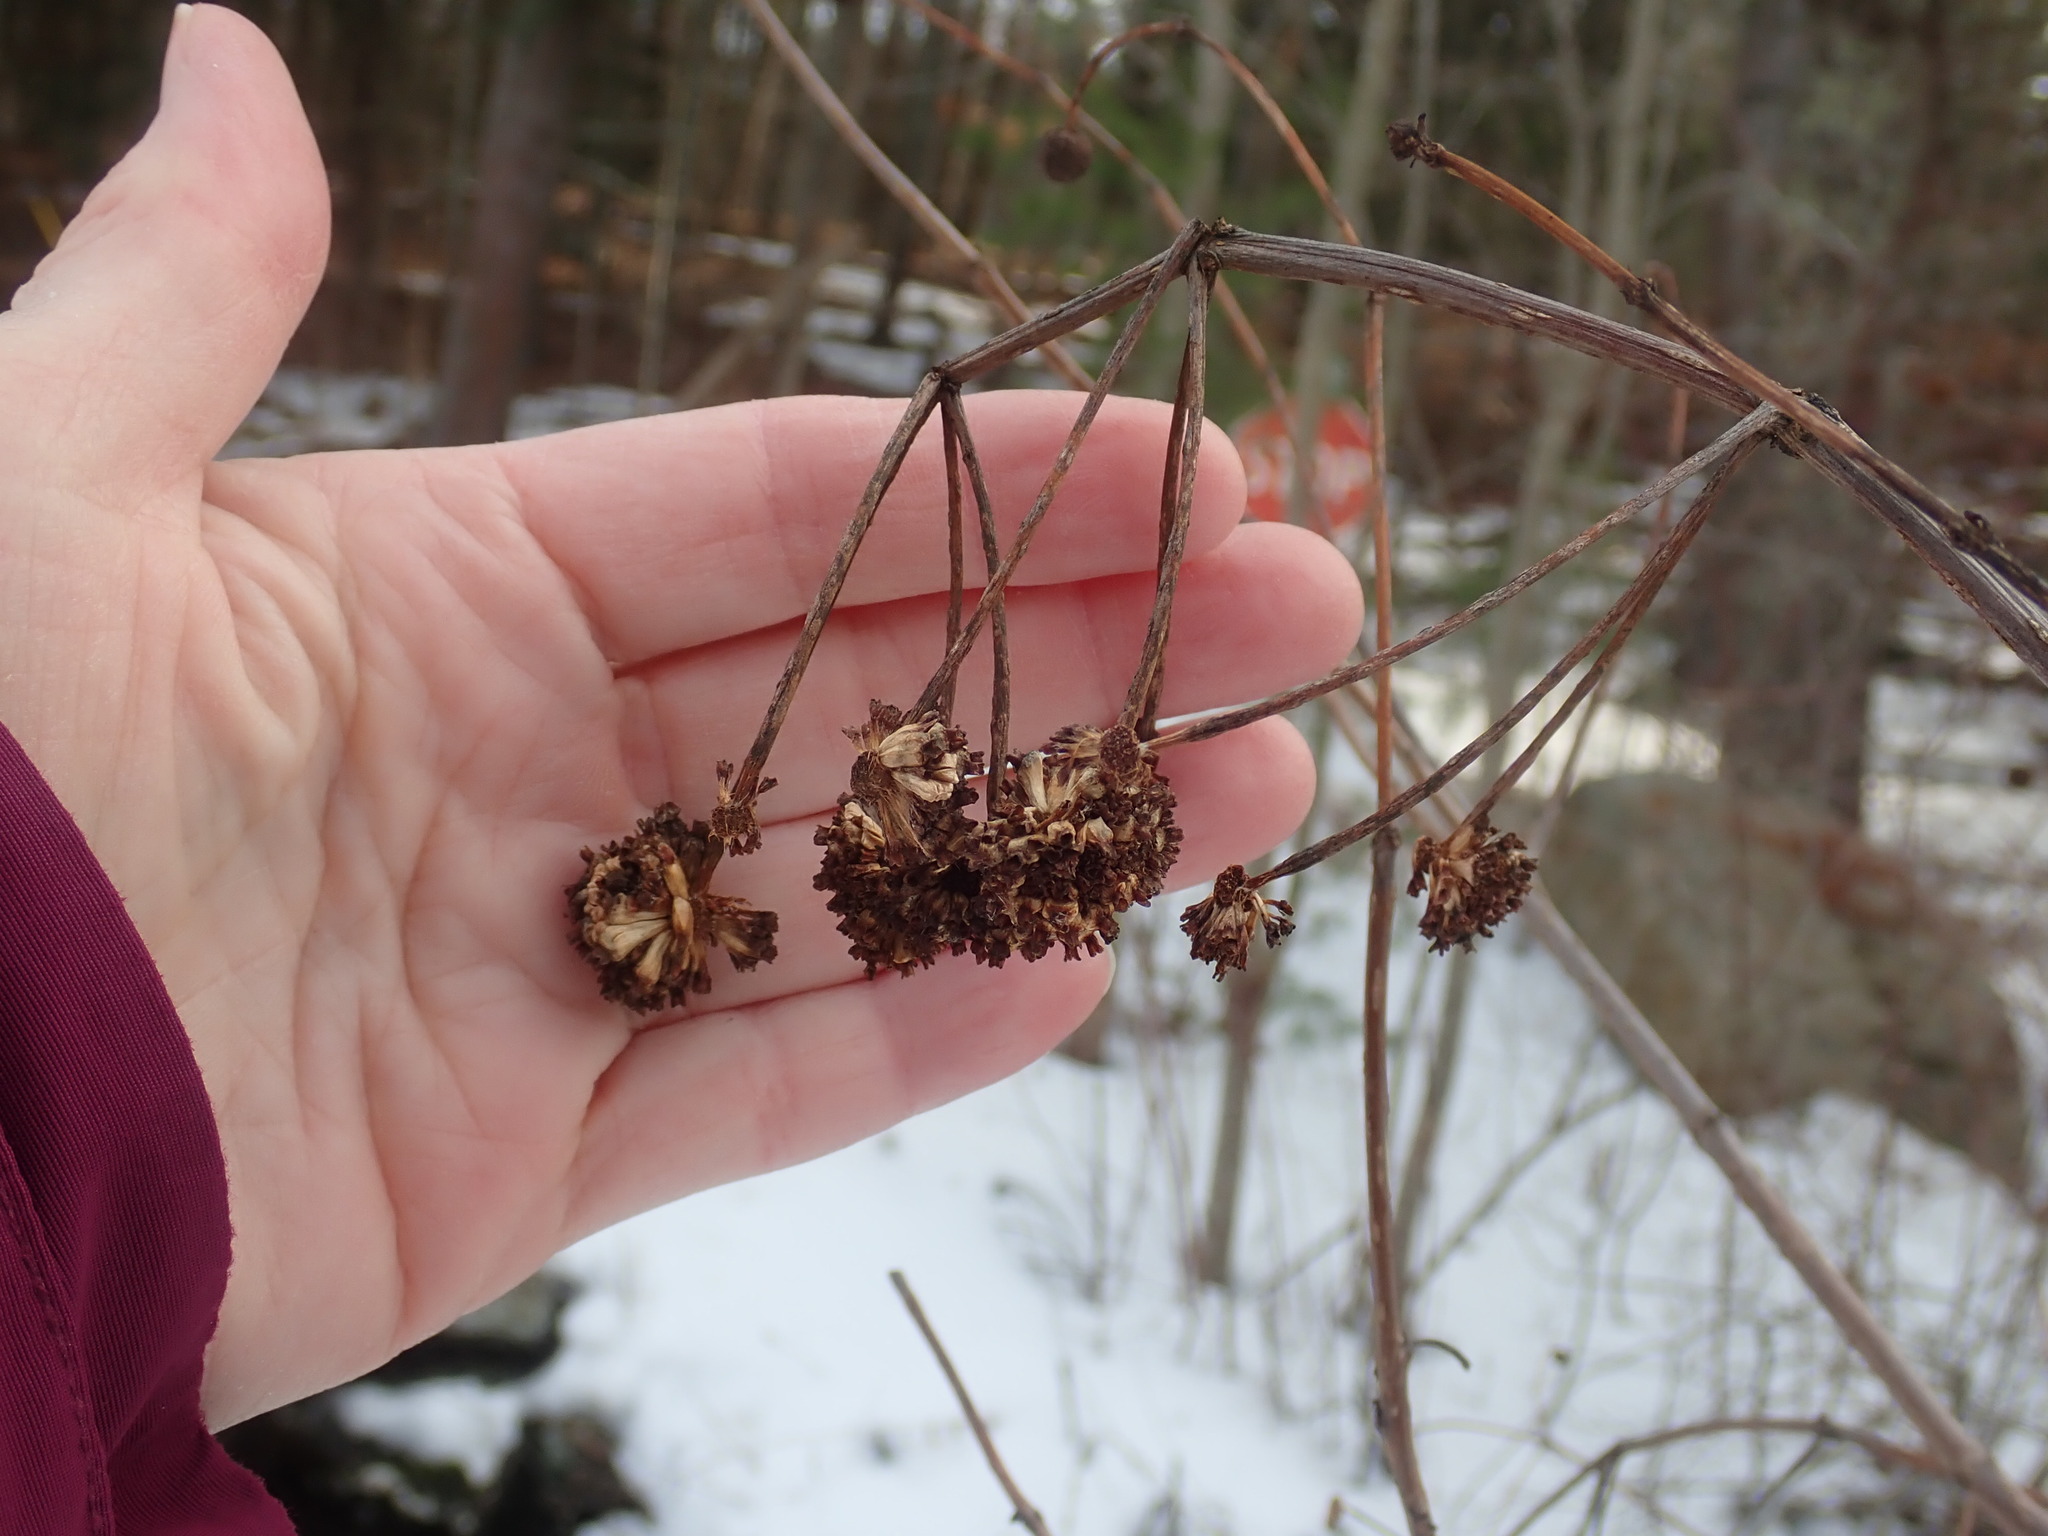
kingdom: Plantae
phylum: Tracheophyta
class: Magnoliopsida
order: Gentianales
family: Rubiaceae
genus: Cephalanthus
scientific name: Cephalanthus occidentalis
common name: Button-willow
